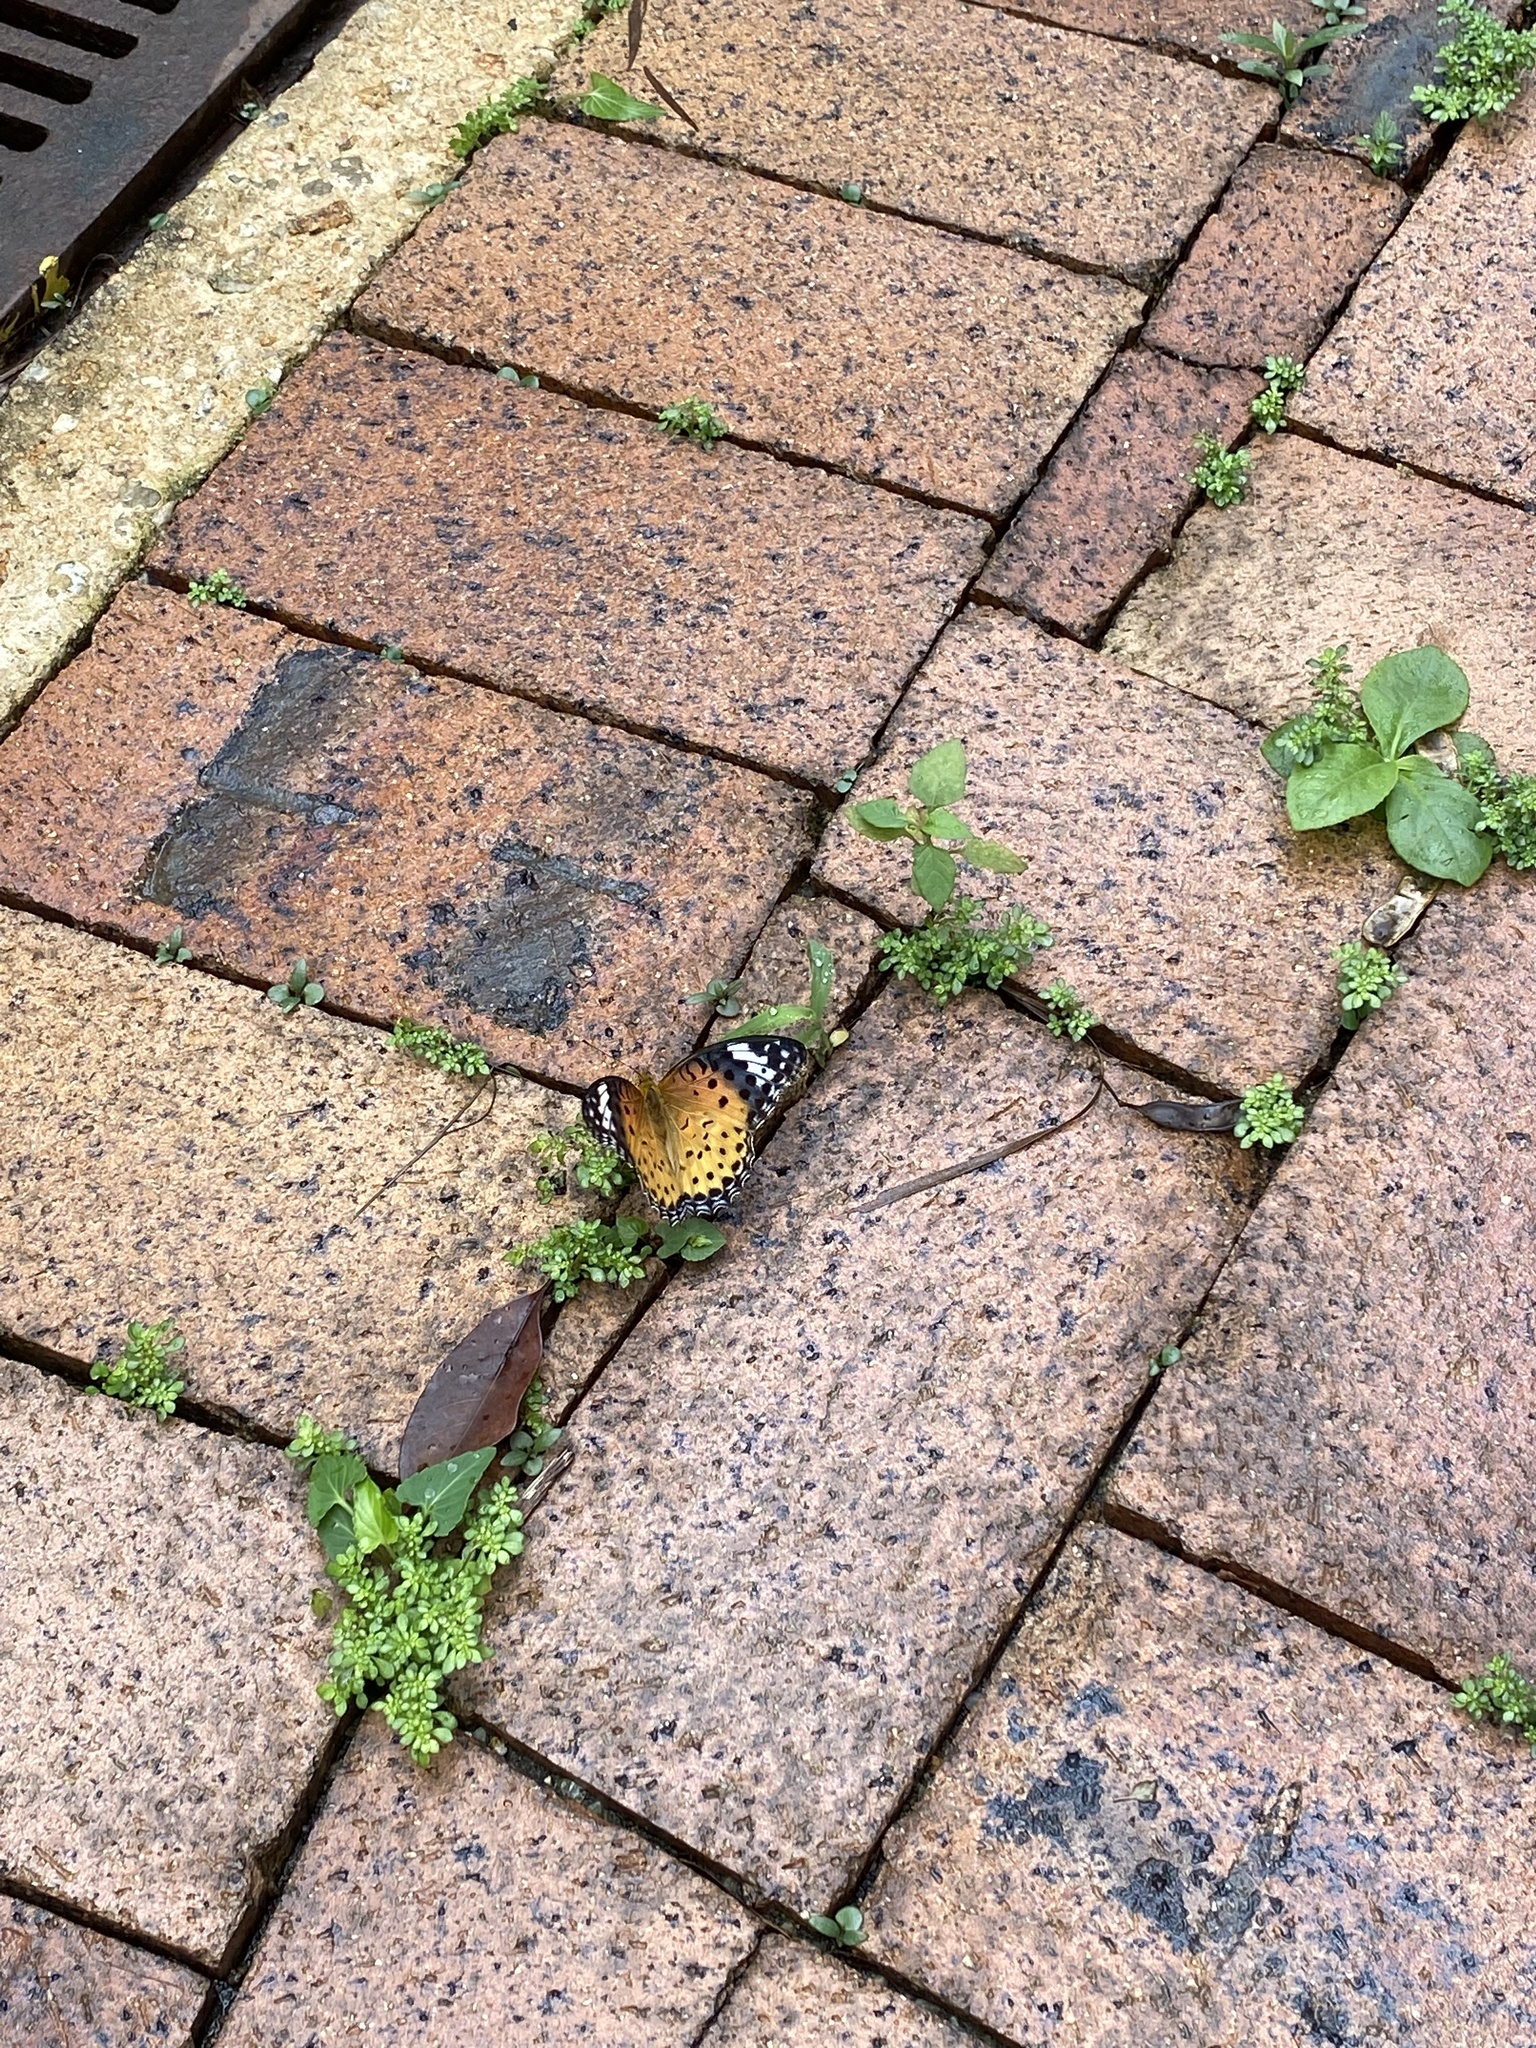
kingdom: Animalia
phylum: Arthropoda
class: Insecta
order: Lepidoptera
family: Nymphalidae
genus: Argynnis
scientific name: Argynnis hyperbius
